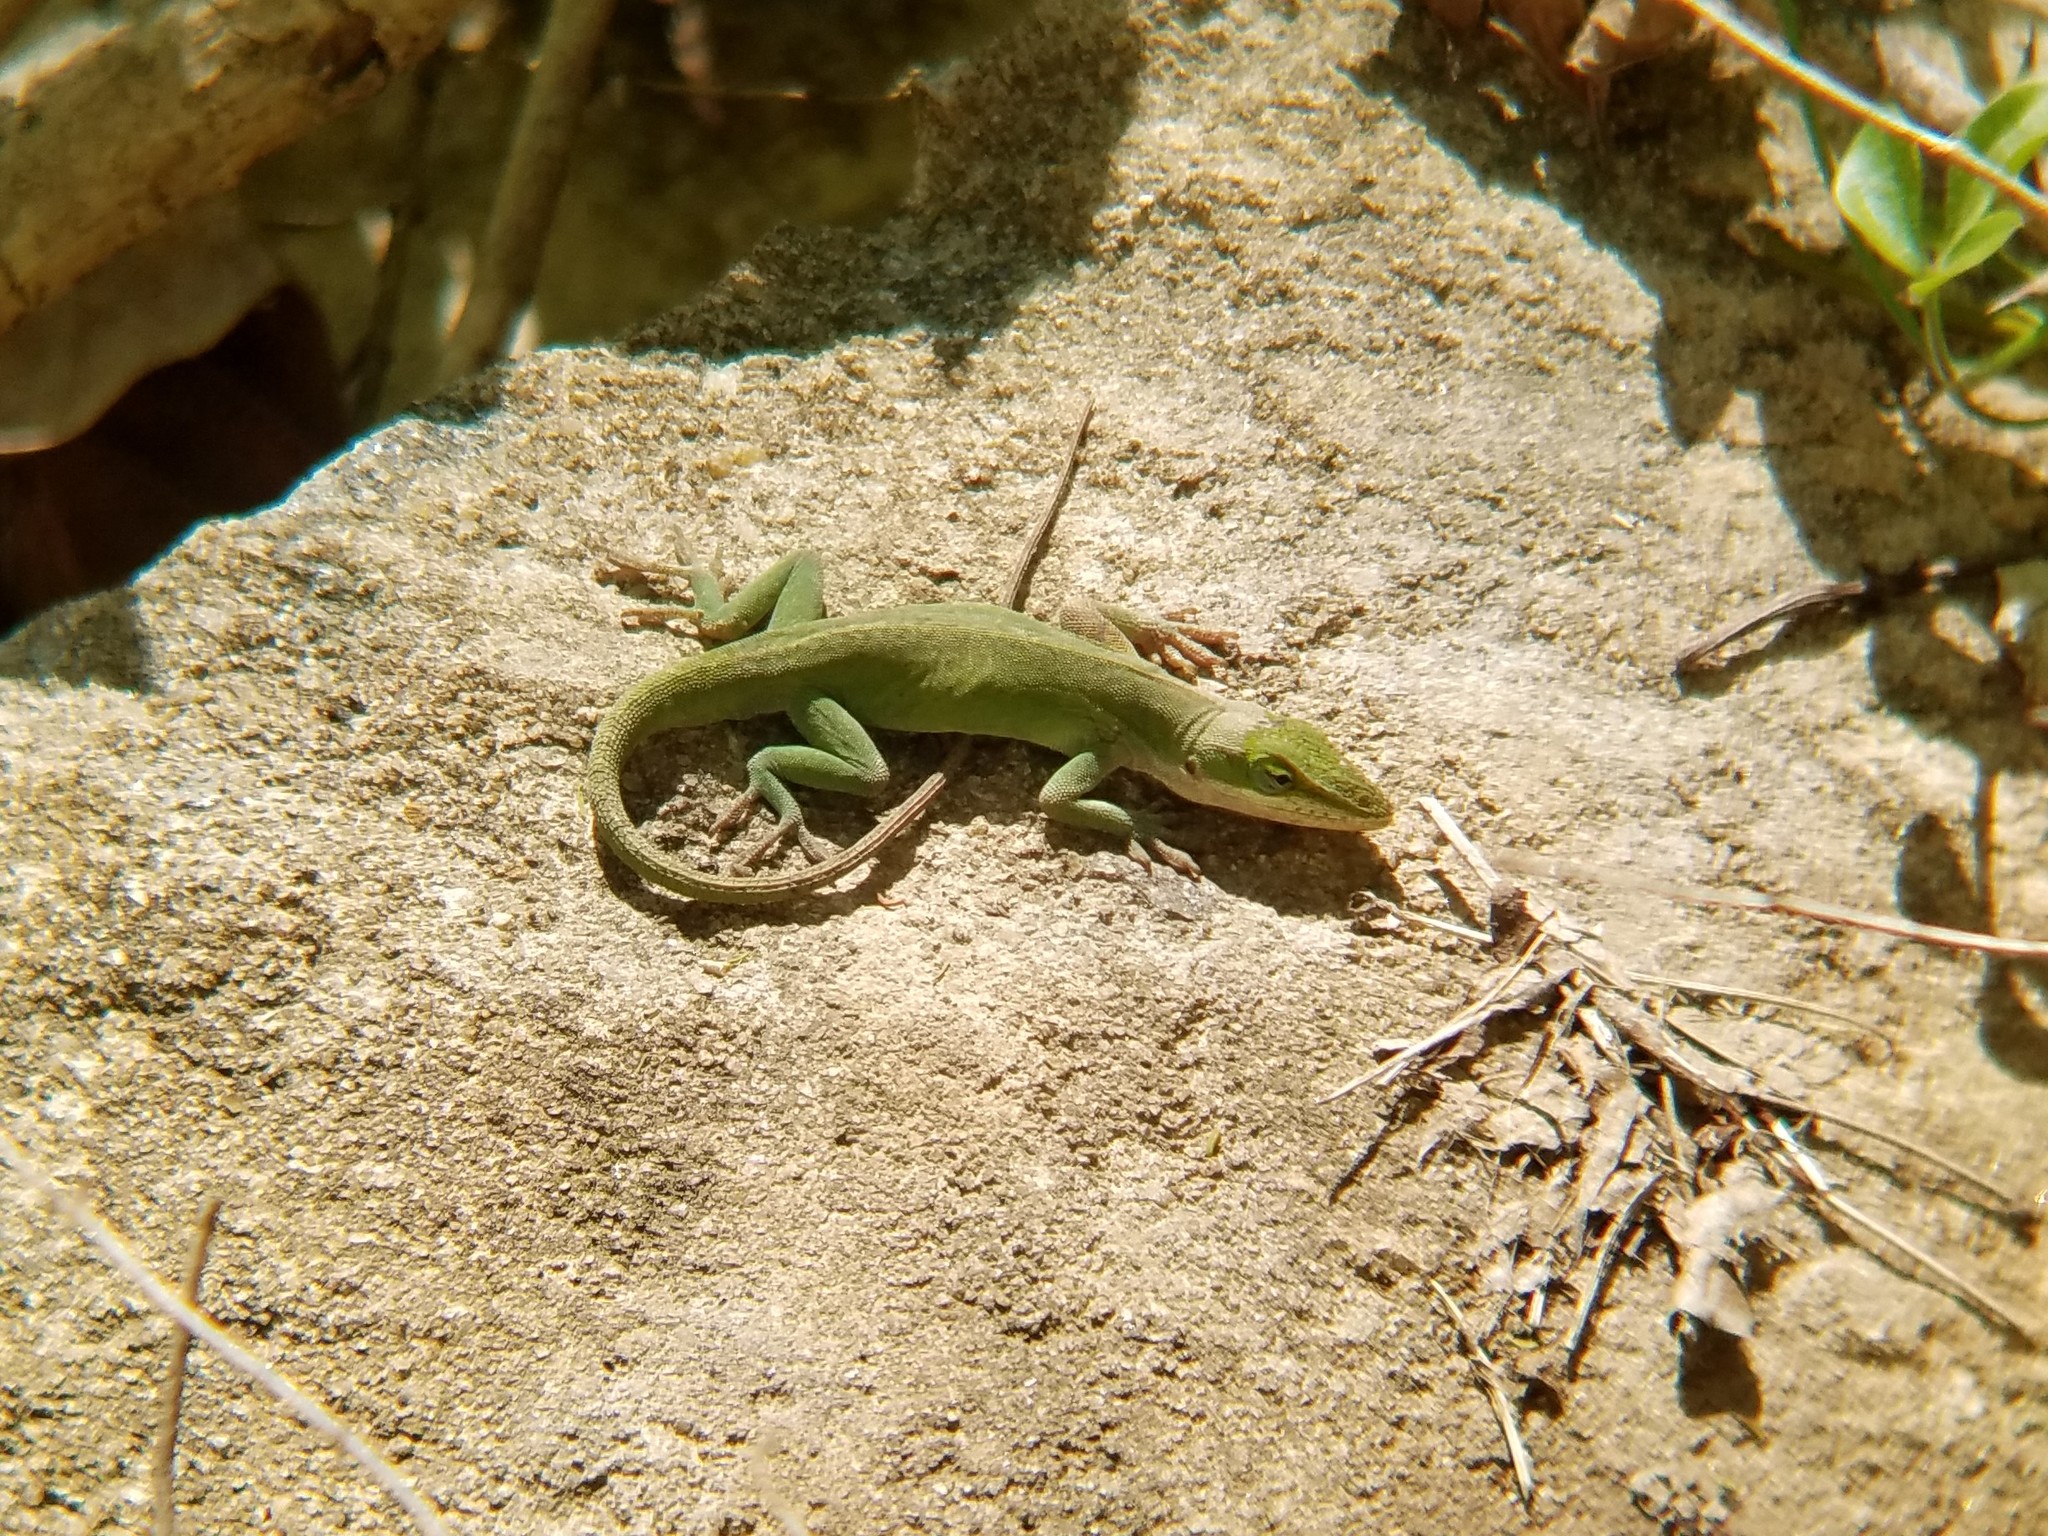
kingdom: Animalia
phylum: Chordata
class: Squamata
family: Dactyloidae
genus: Anolis
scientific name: Anolis carolinensis
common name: Green anole
